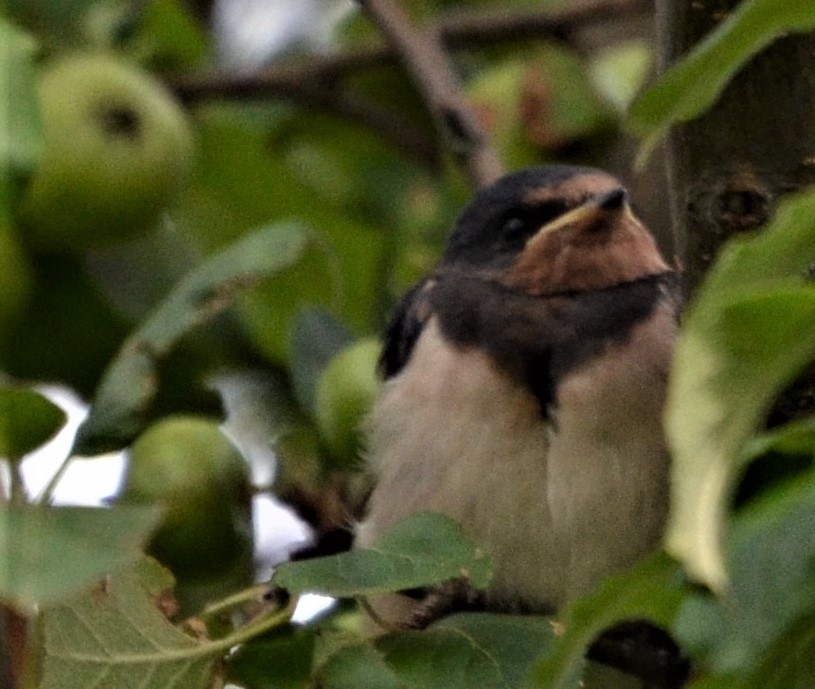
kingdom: Animalia
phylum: Chordata
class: Aves
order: Passeriformes
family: Hirundinidae
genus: Hirundo
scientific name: Hirundo rustica
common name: Barn swallow
